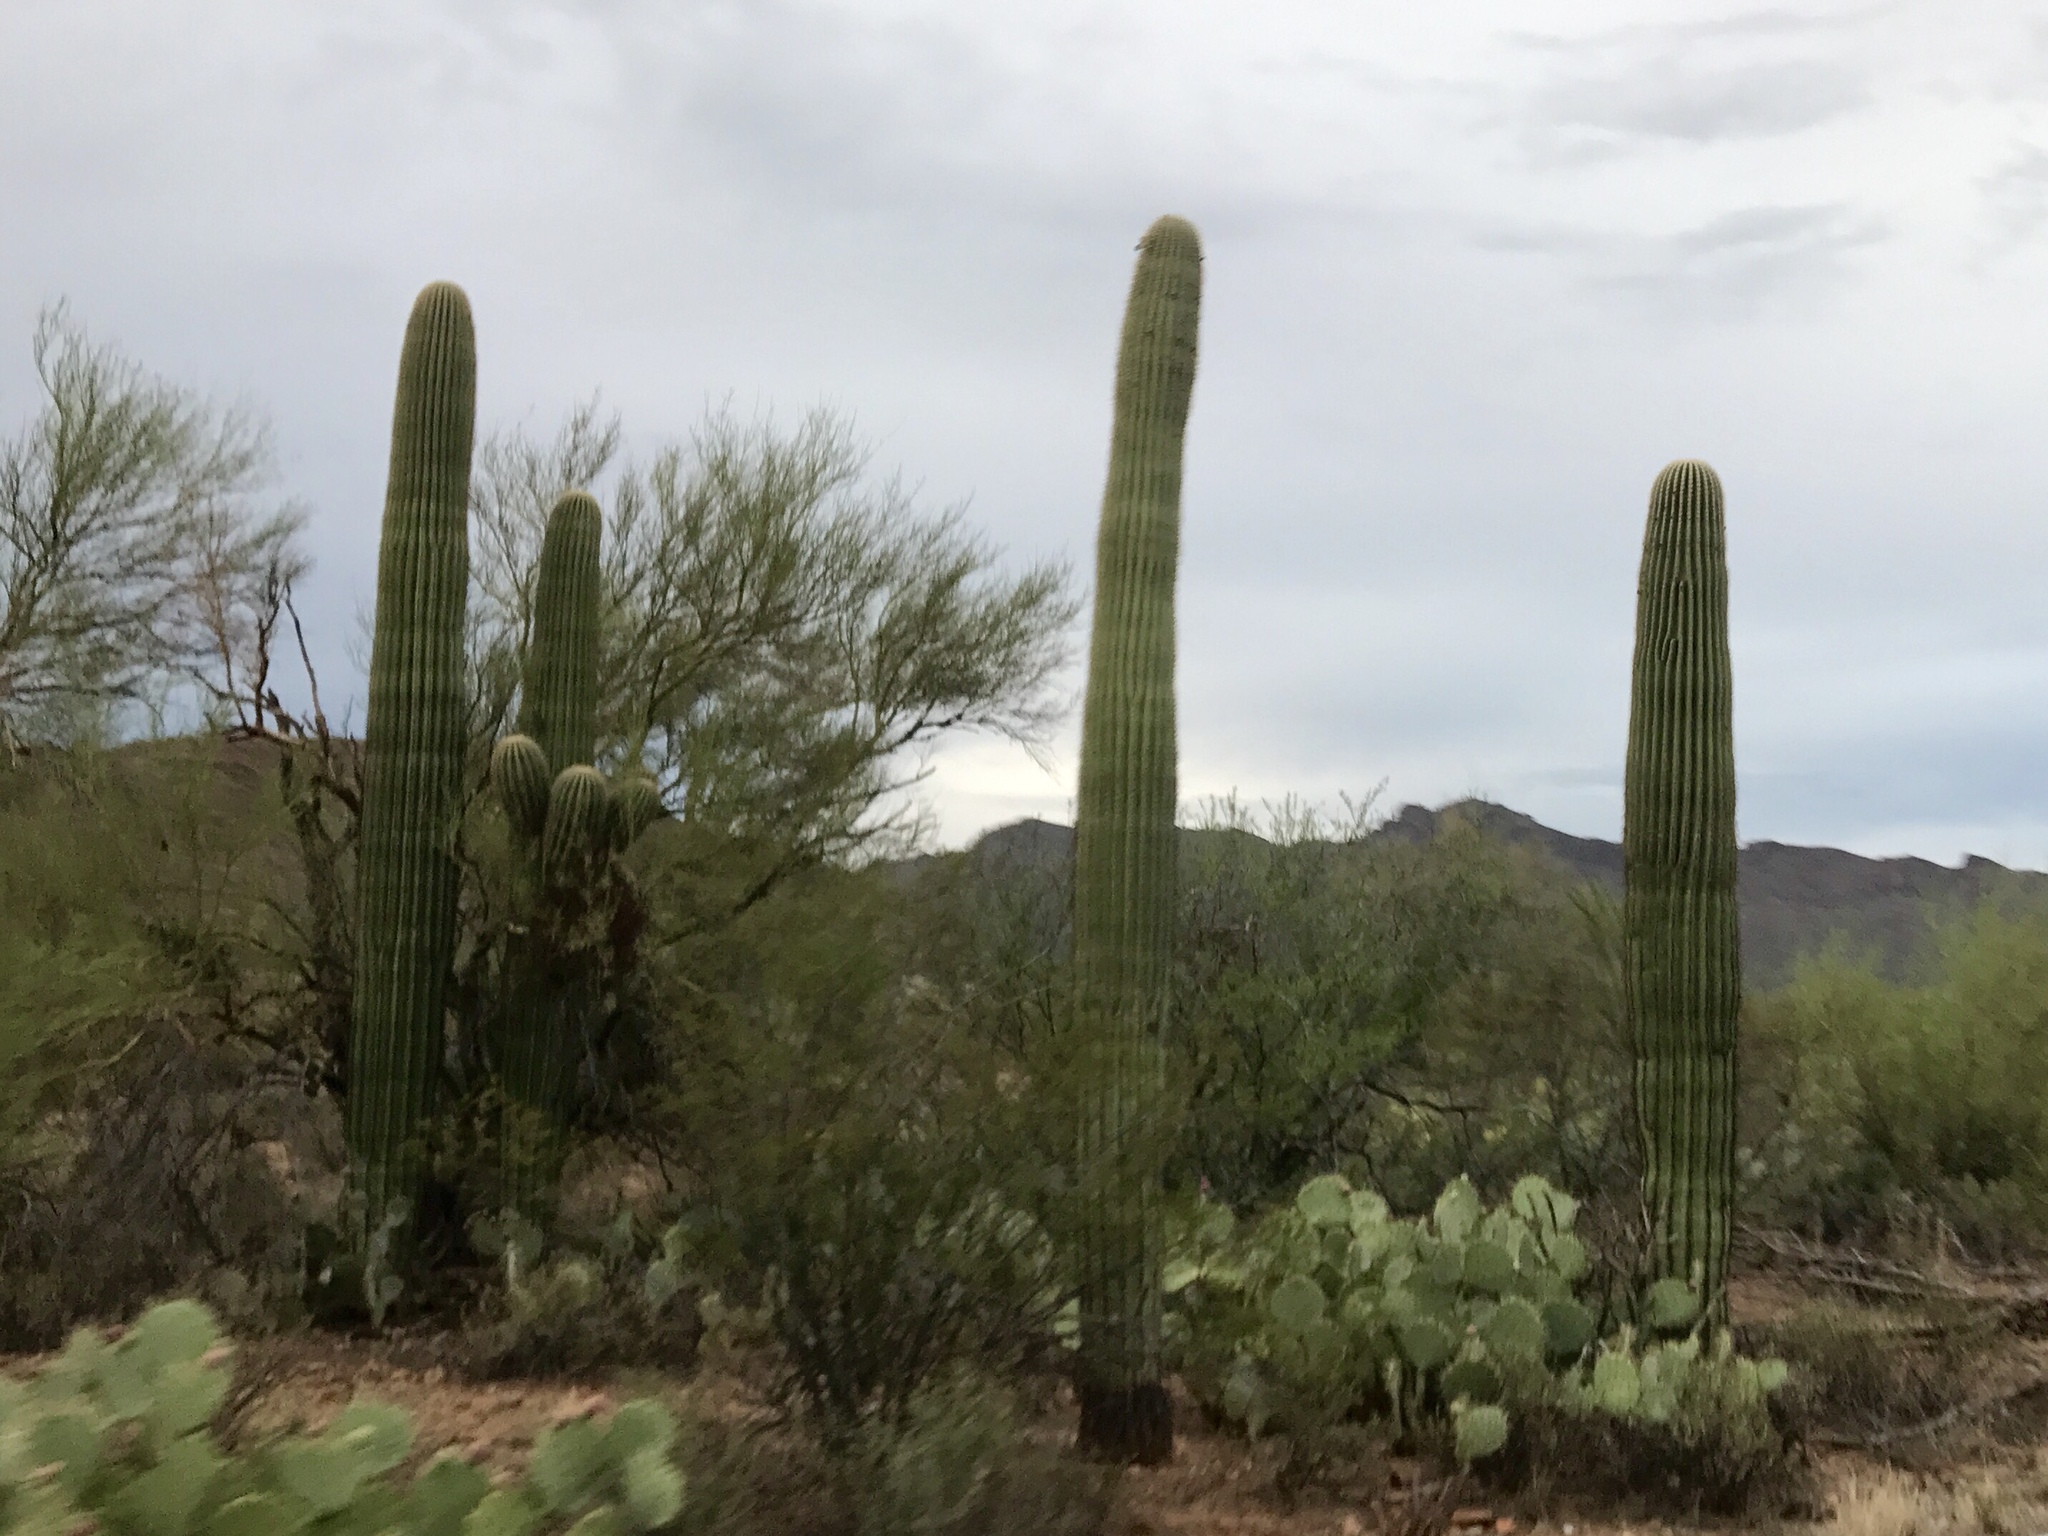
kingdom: Plantae
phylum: Tracheophyta
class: Magnoliopsida
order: Caryophyllales
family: Cactaceae
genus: Carnegiea
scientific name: Carnegiea gigantea
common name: Saguaro
